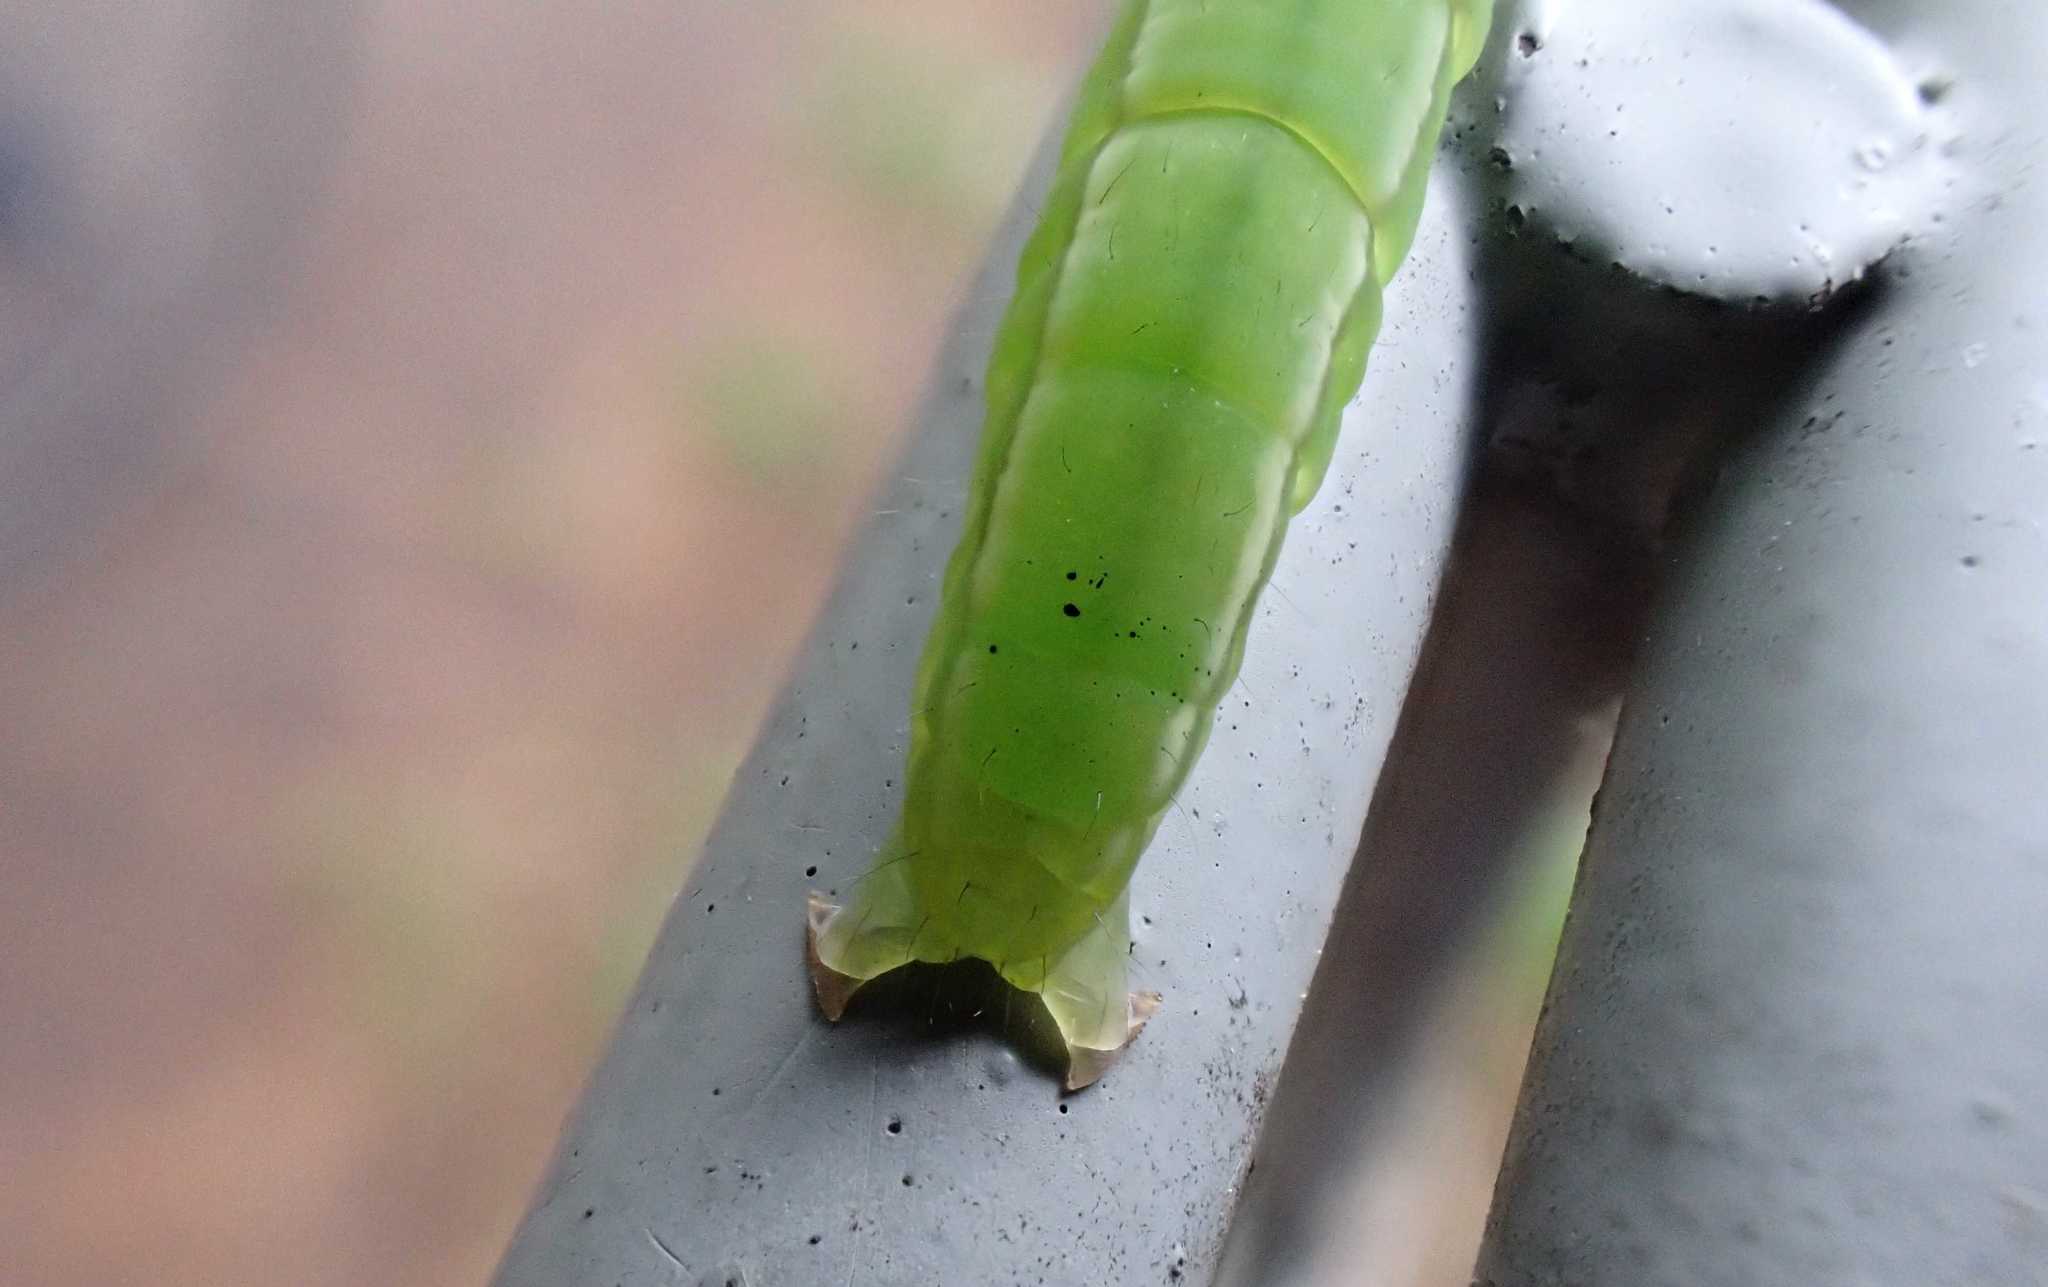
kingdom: Animalia
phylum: Arthropoda
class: Insecta
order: Lepidoptera
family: Erebidae
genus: Scoliopteryx
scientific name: Scoliopteryx libatrix
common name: Herald
